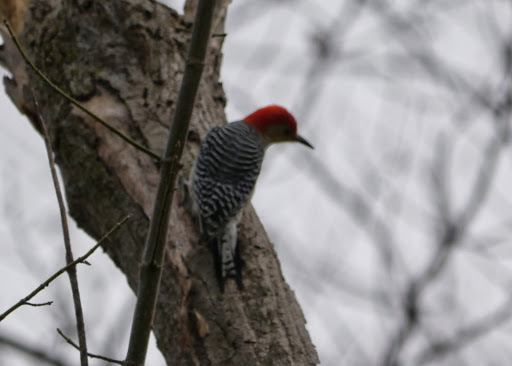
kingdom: Animalia
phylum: Chordata
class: Aves
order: Piciformes
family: Picidae
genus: Melanerpes
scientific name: Melanerpes carolinus
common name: Red-bellied woodpecker
